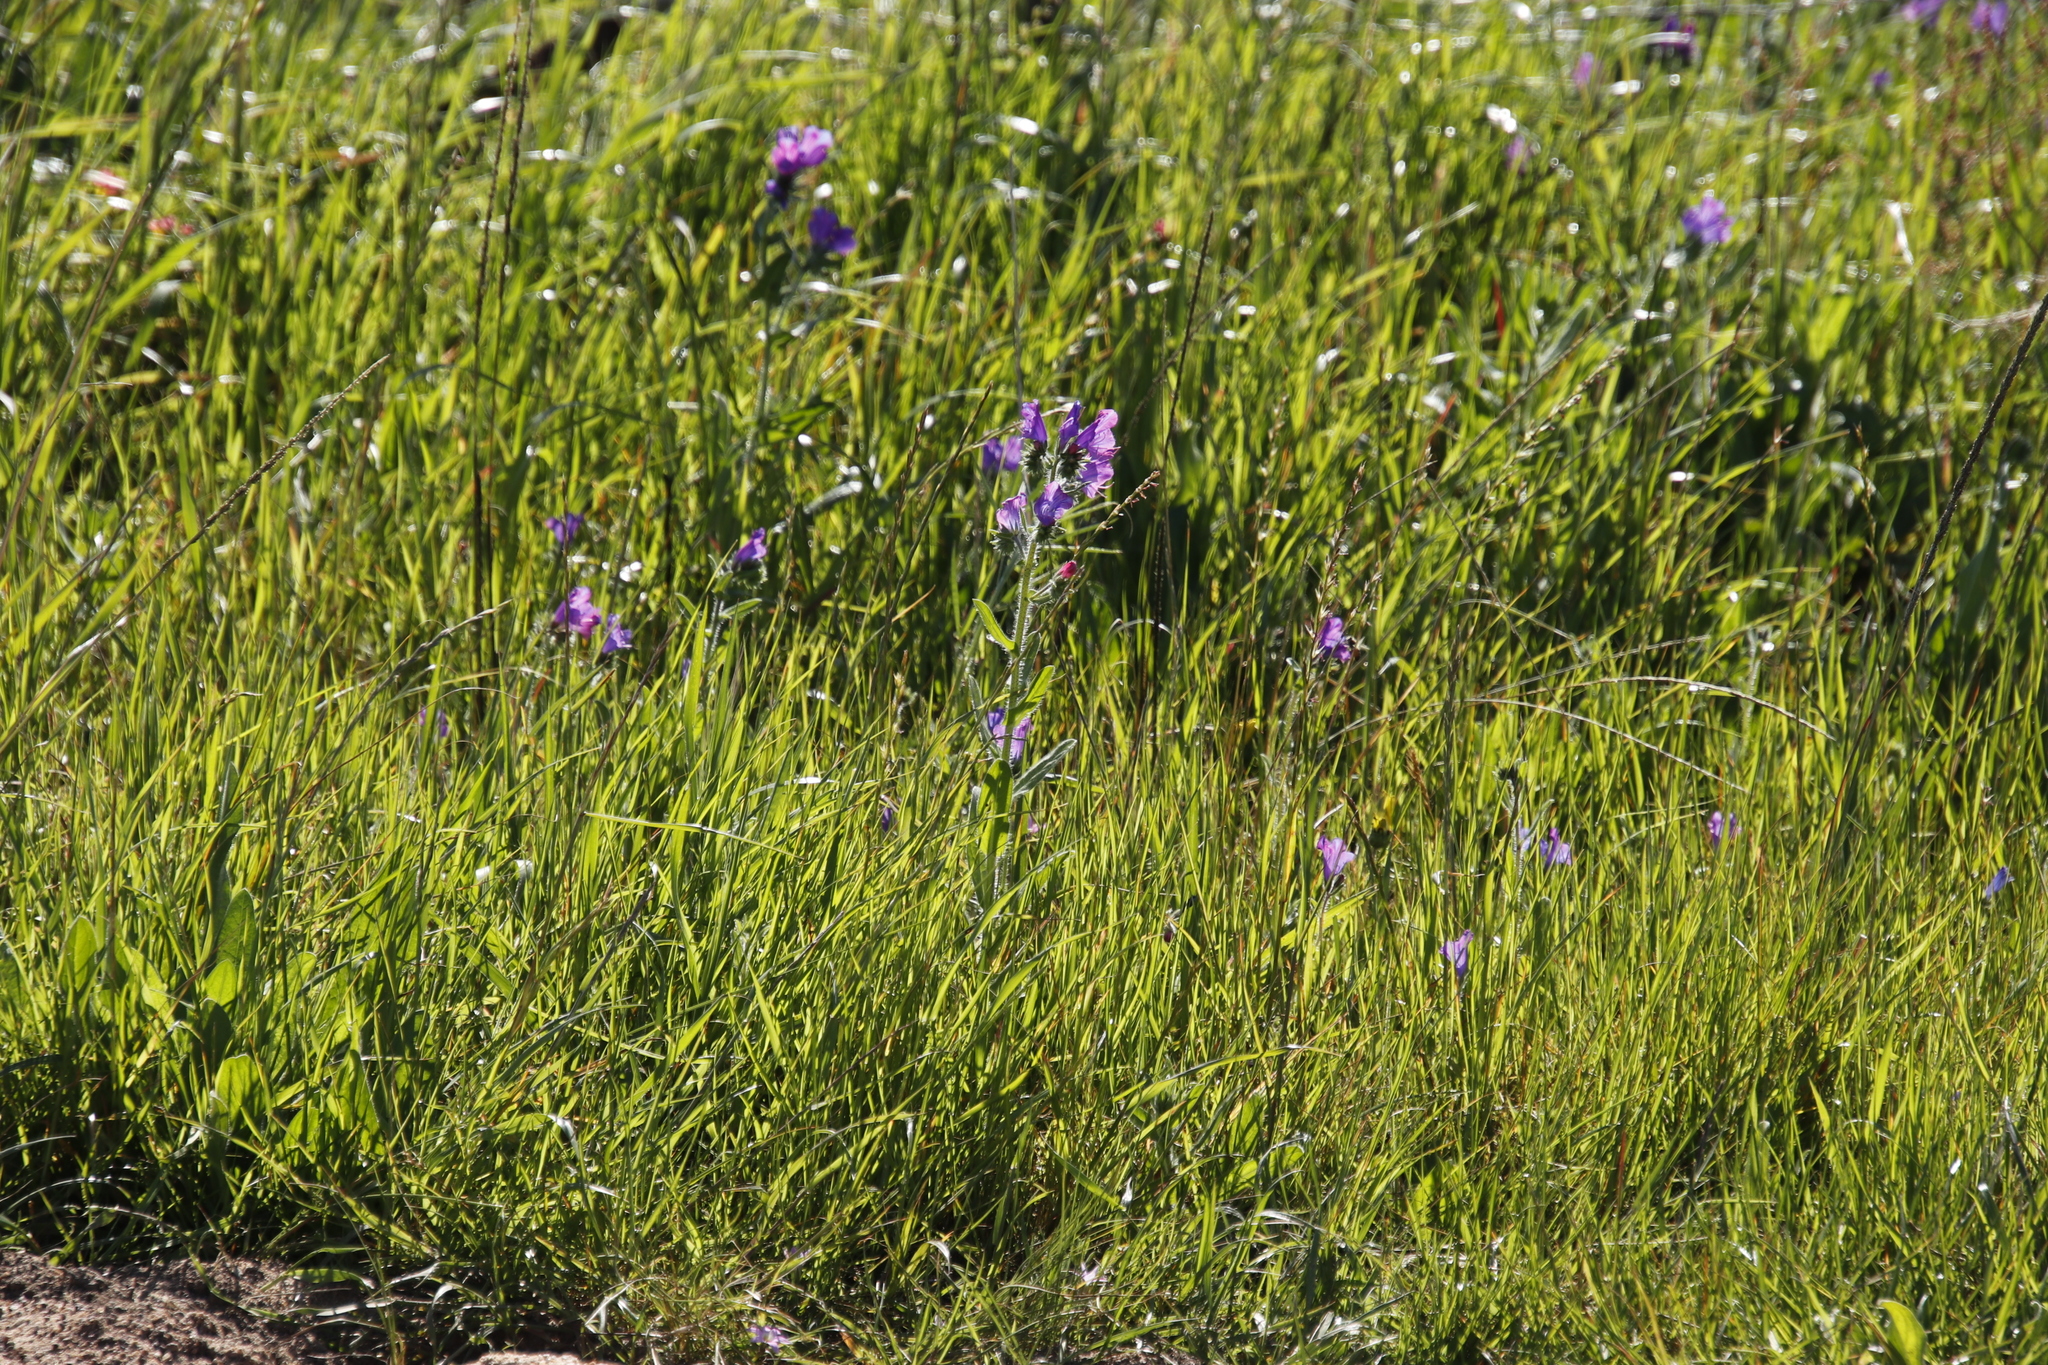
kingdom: Plantae
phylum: Tracheophyta
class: Magnoliopsida
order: Boraginales
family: Boraginaceae
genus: Echium
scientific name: Echium plantagineum
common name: Purple viper's-bugloss
